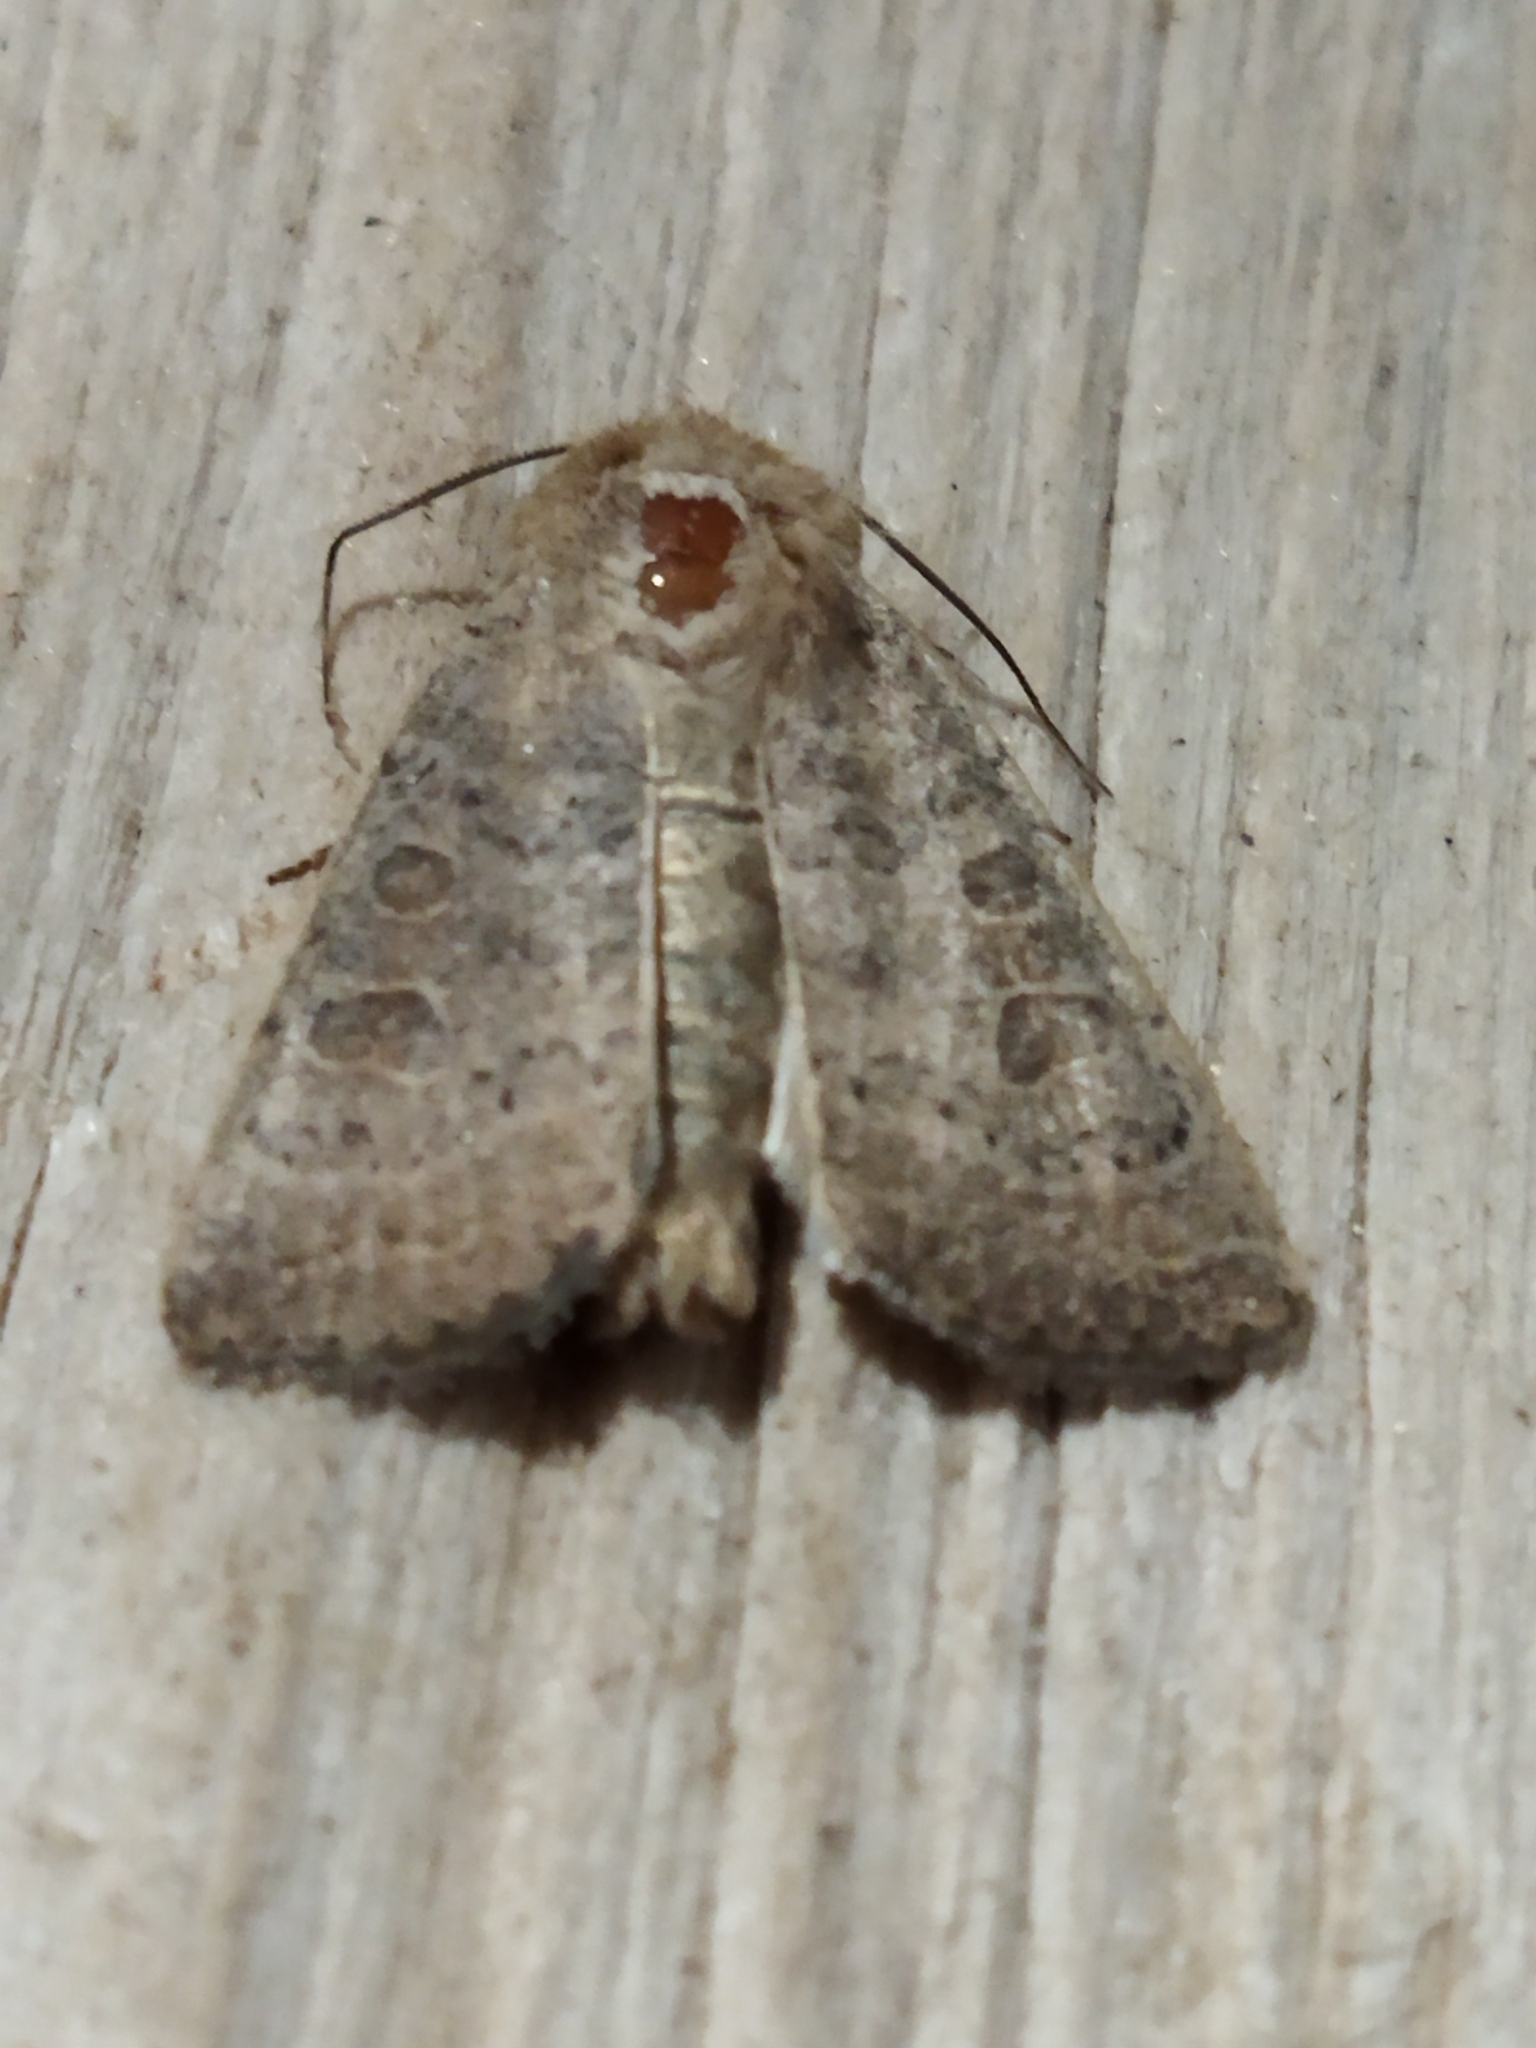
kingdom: Animalia
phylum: Arthropoda
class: Insecta
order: Lepidoptera
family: Noctuidae
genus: Hoplodrina
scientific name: Hoplodrina ambigua
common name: Vine's rustic
